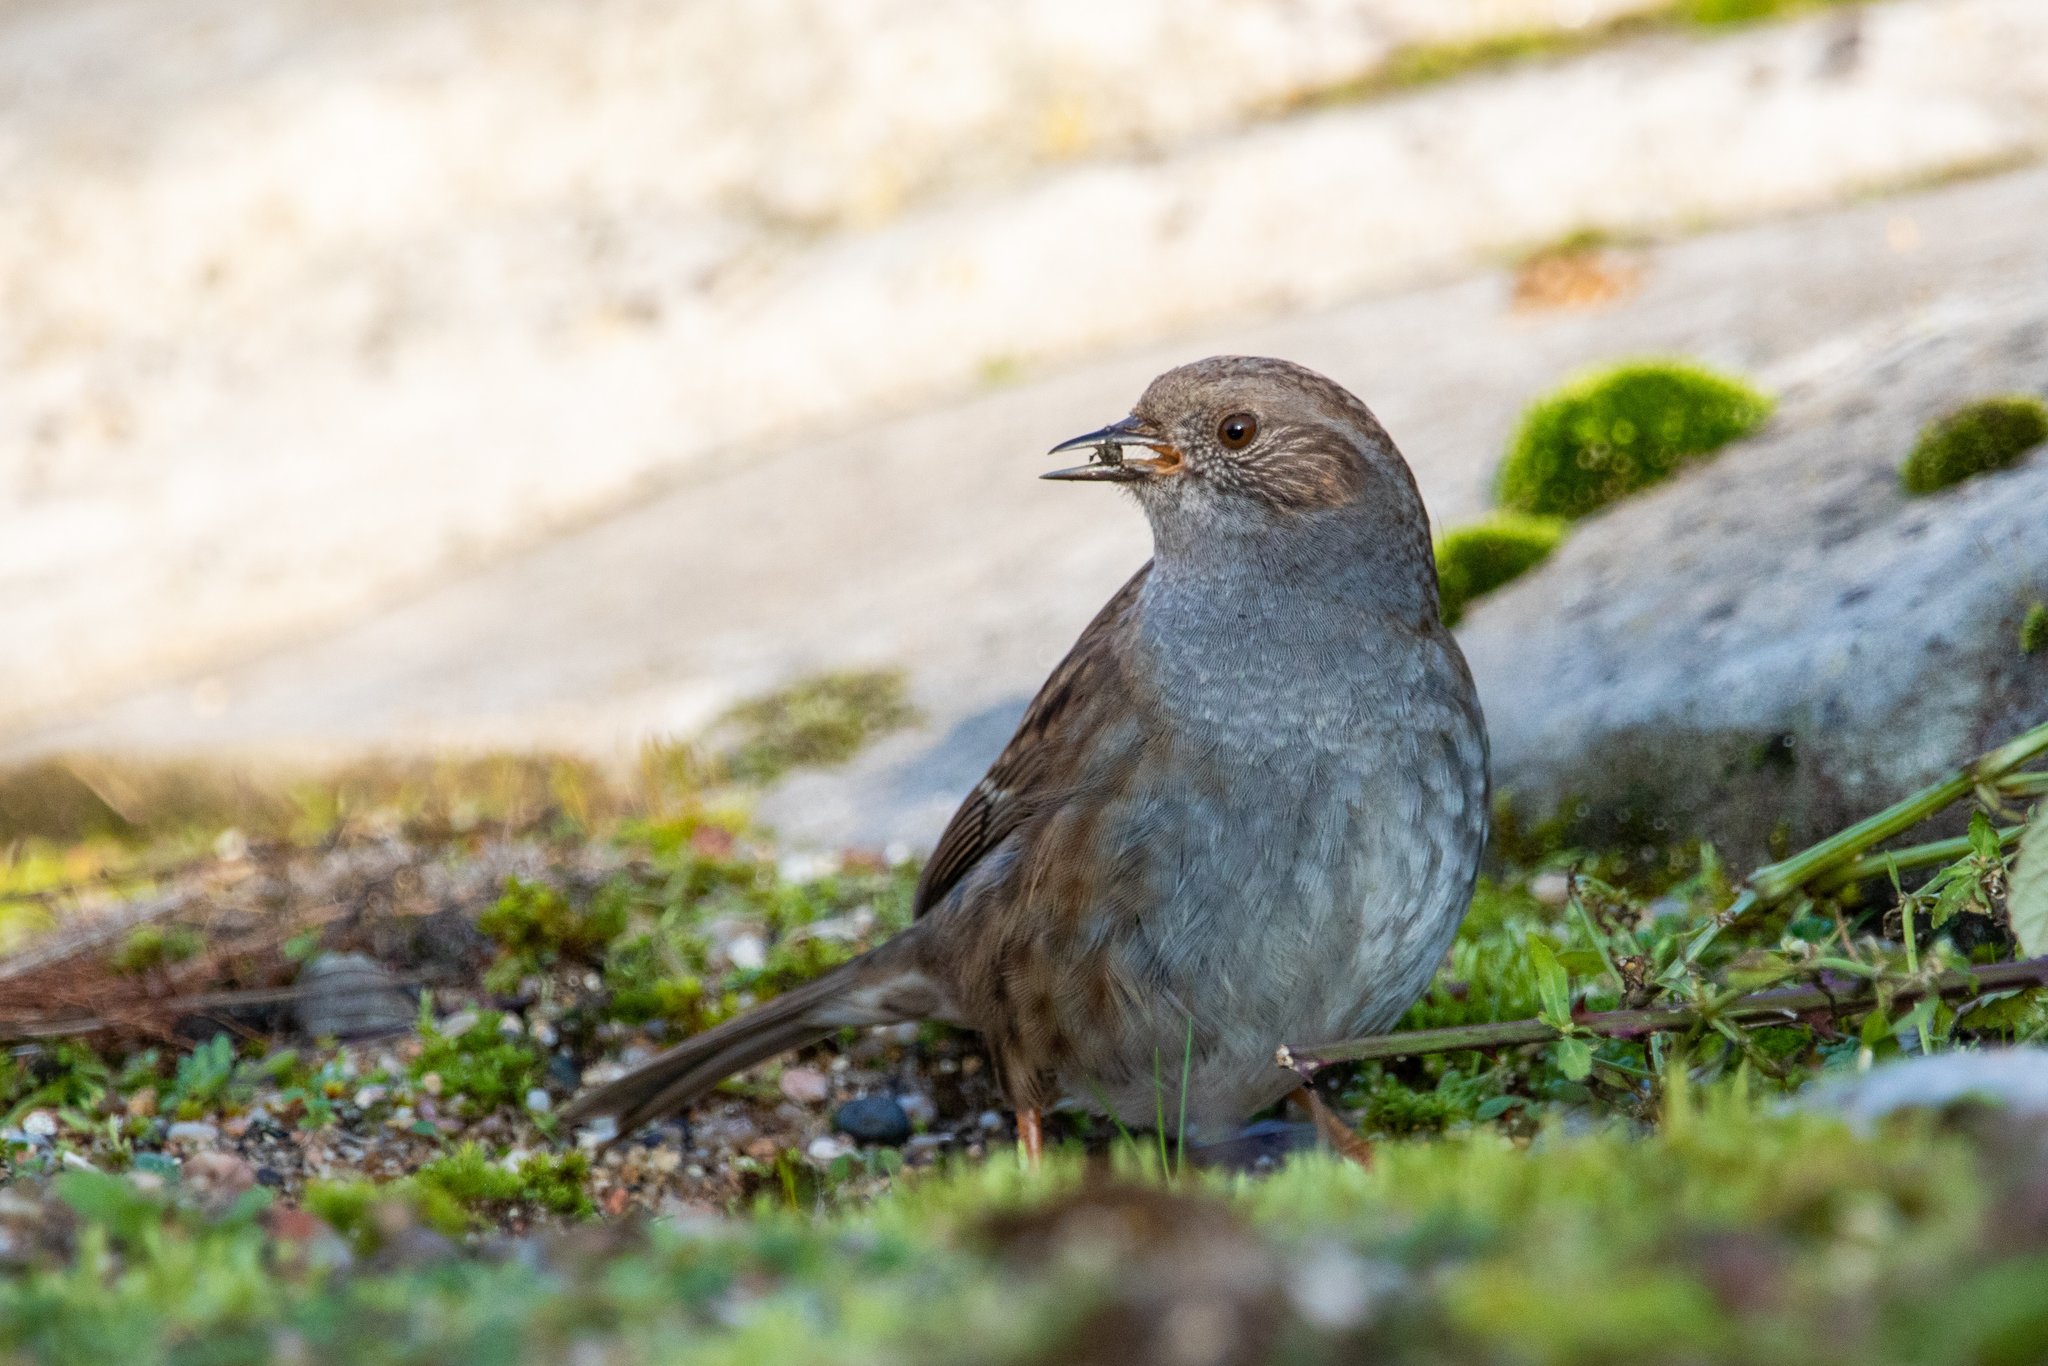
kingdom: Animalia
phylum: Chordata
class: Aves
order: Passeriformes
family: Prunellidae
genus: Prunella
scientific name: Prunella modularis
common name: Dunnock
